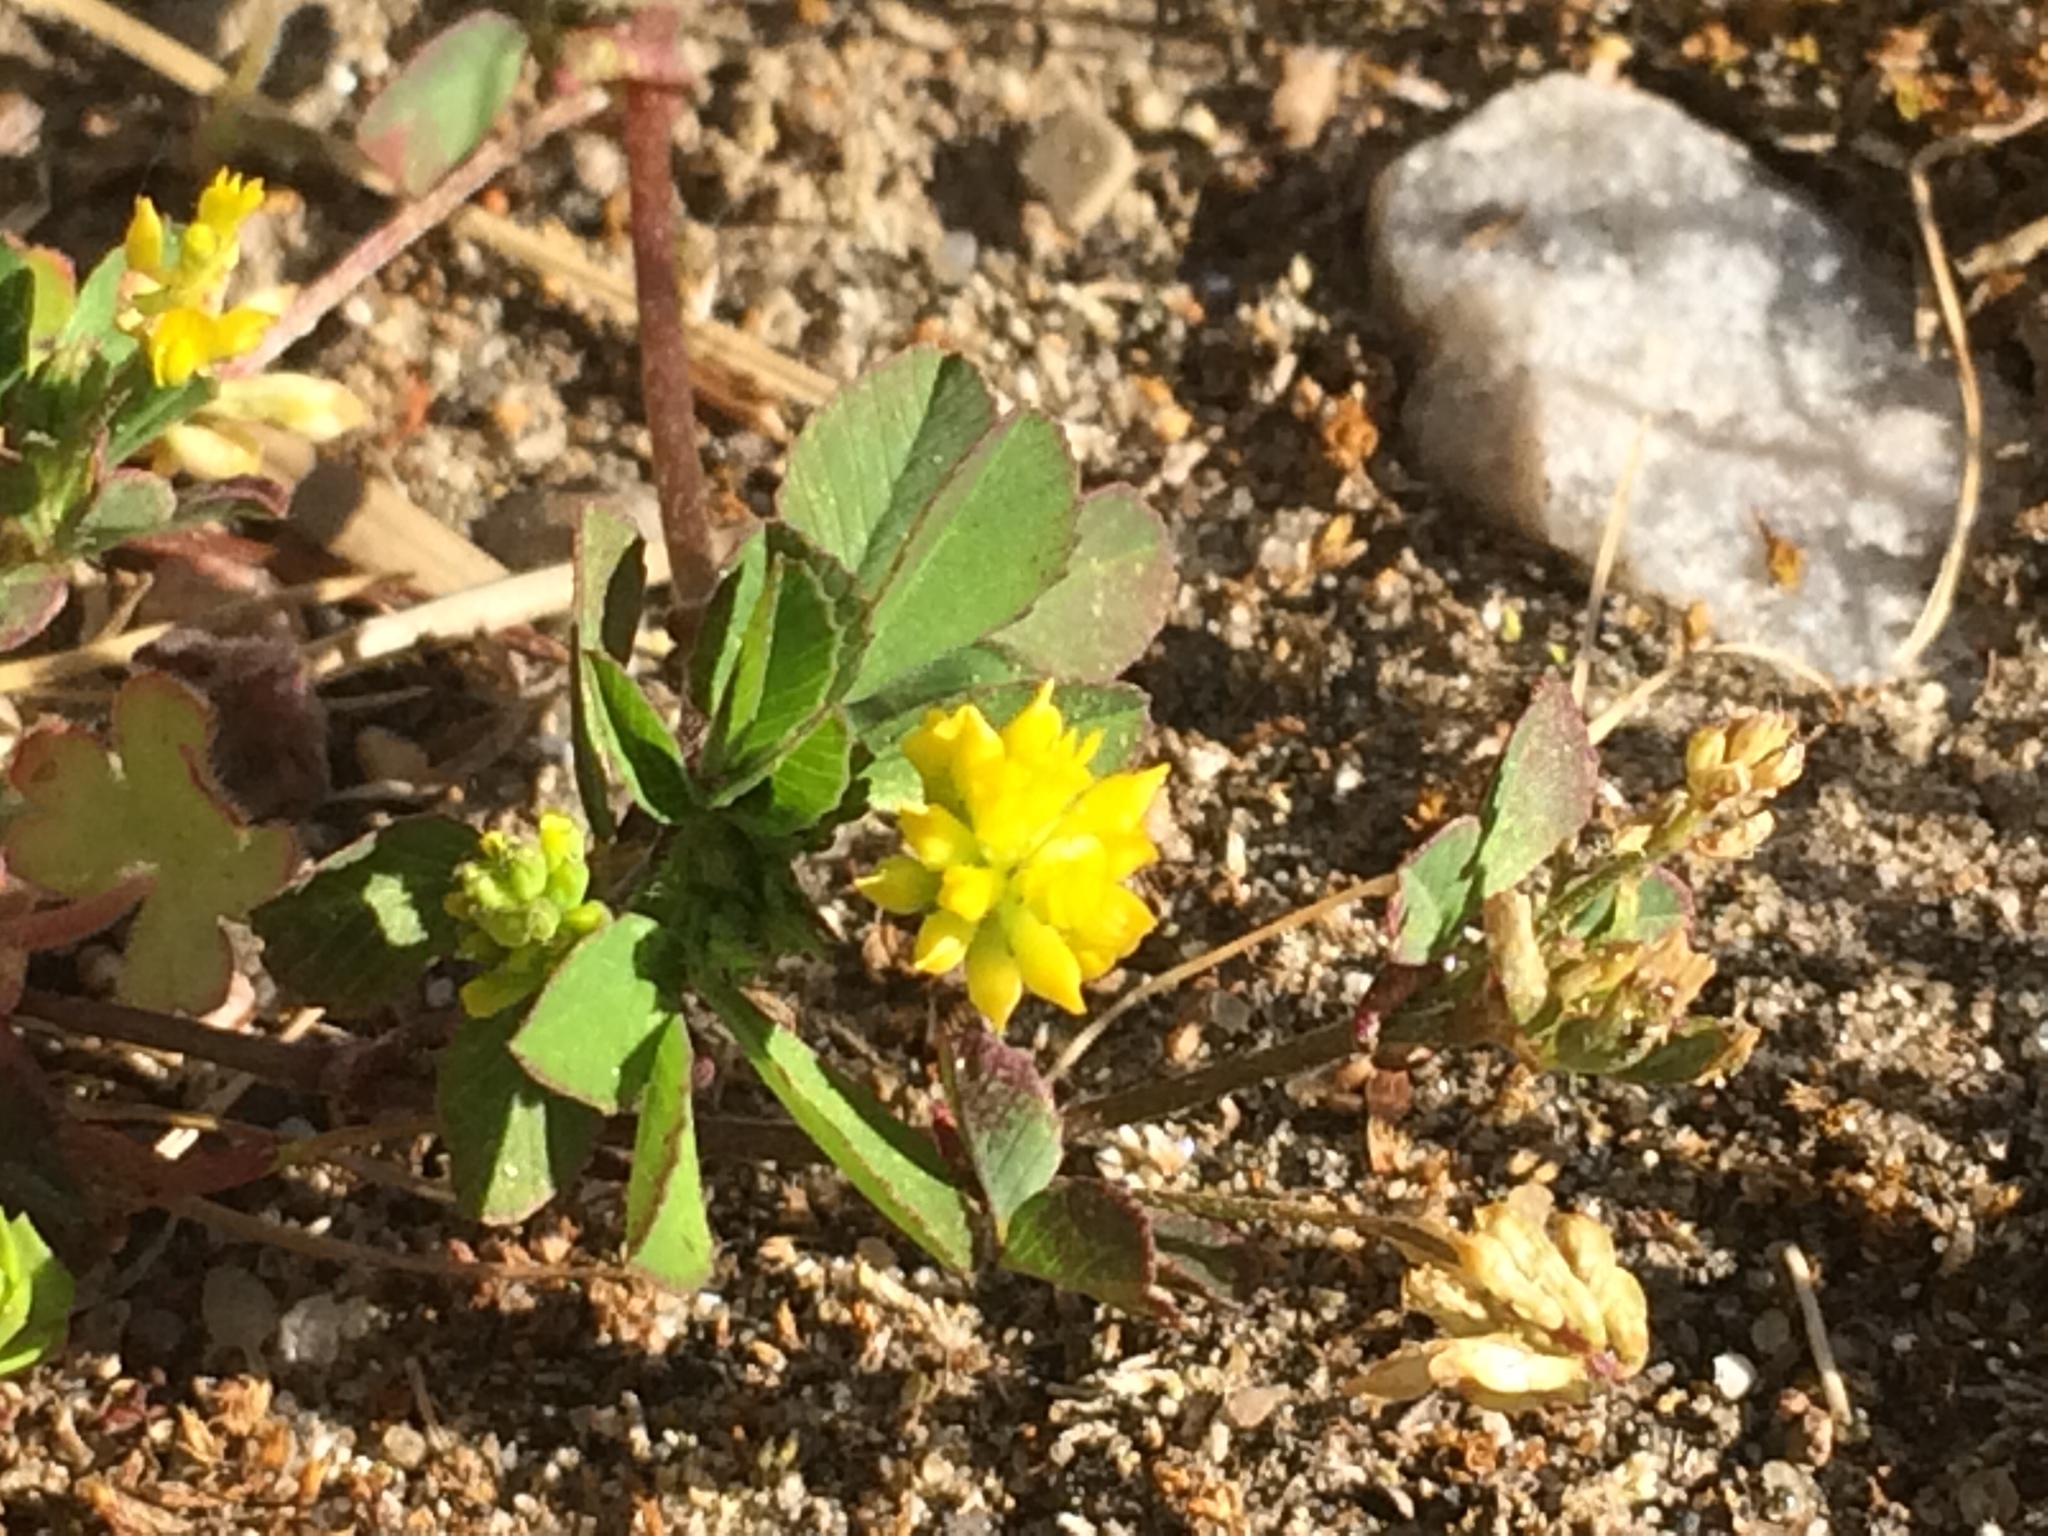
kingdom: Plantae
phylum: Tracheophyta
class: Magnoliopsida
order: Fabales
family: Fabaceae
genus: Trifolium
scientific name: Trifolium dubium
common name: Suckling clover
